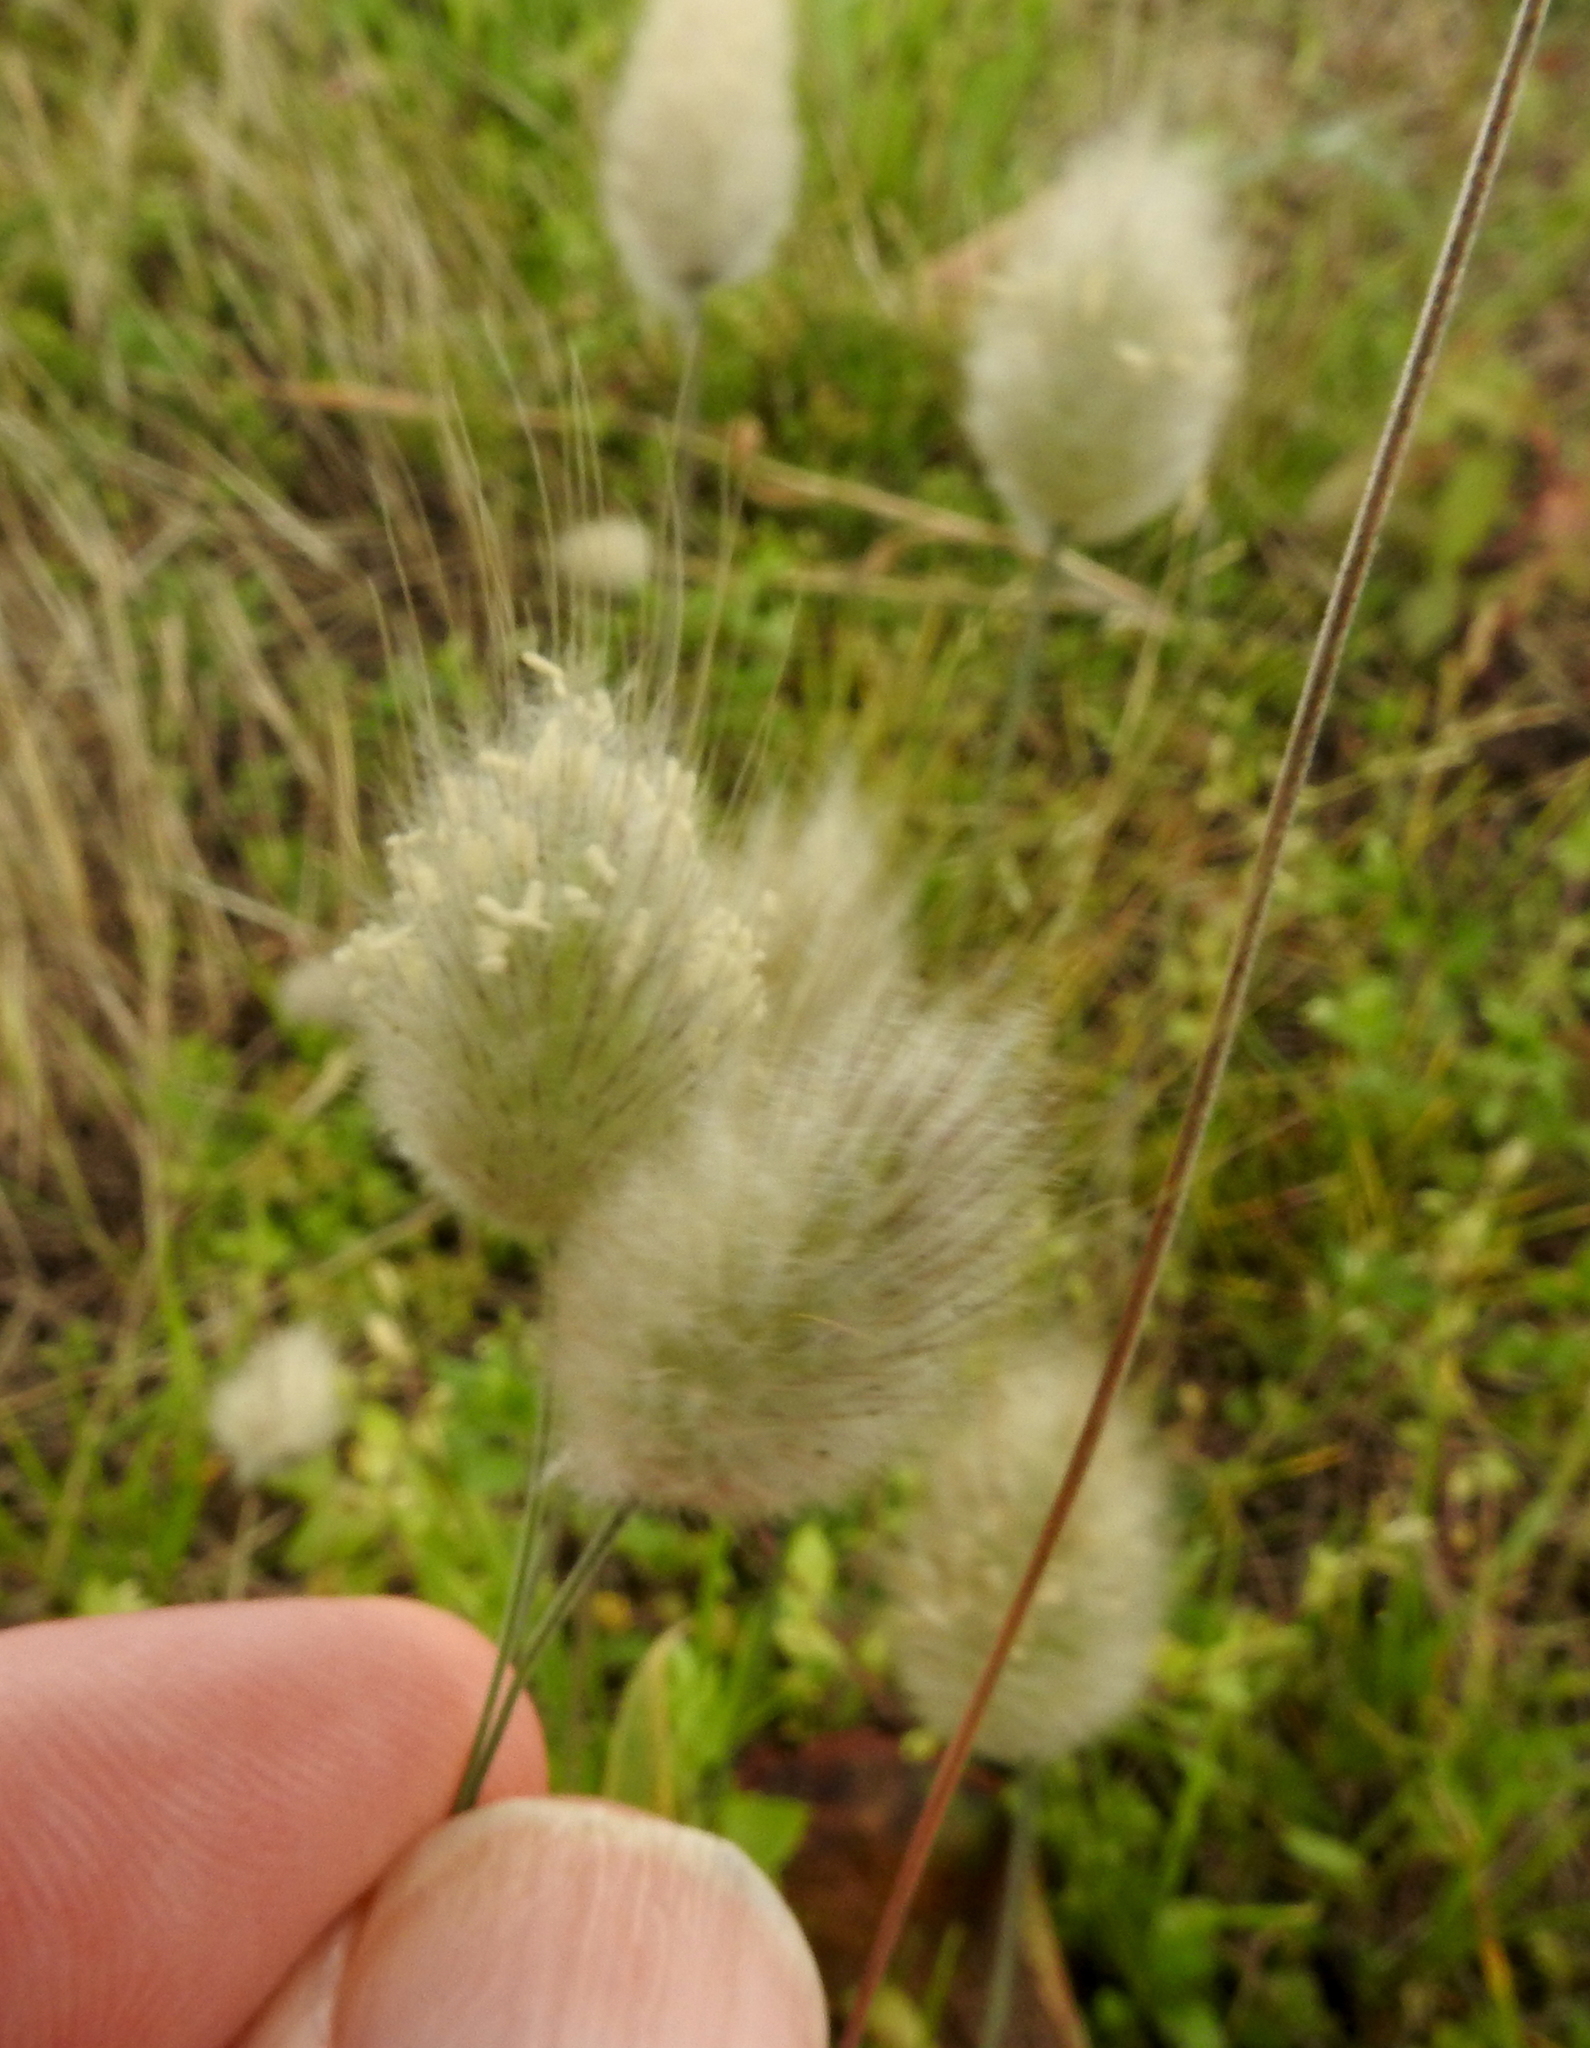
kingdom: Plantae
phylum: Tracheophyta
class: Liliopsida
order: Poales
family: Poaceae
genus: Lagurus
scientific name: Lagurus ovatus
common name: Hare's-tail
